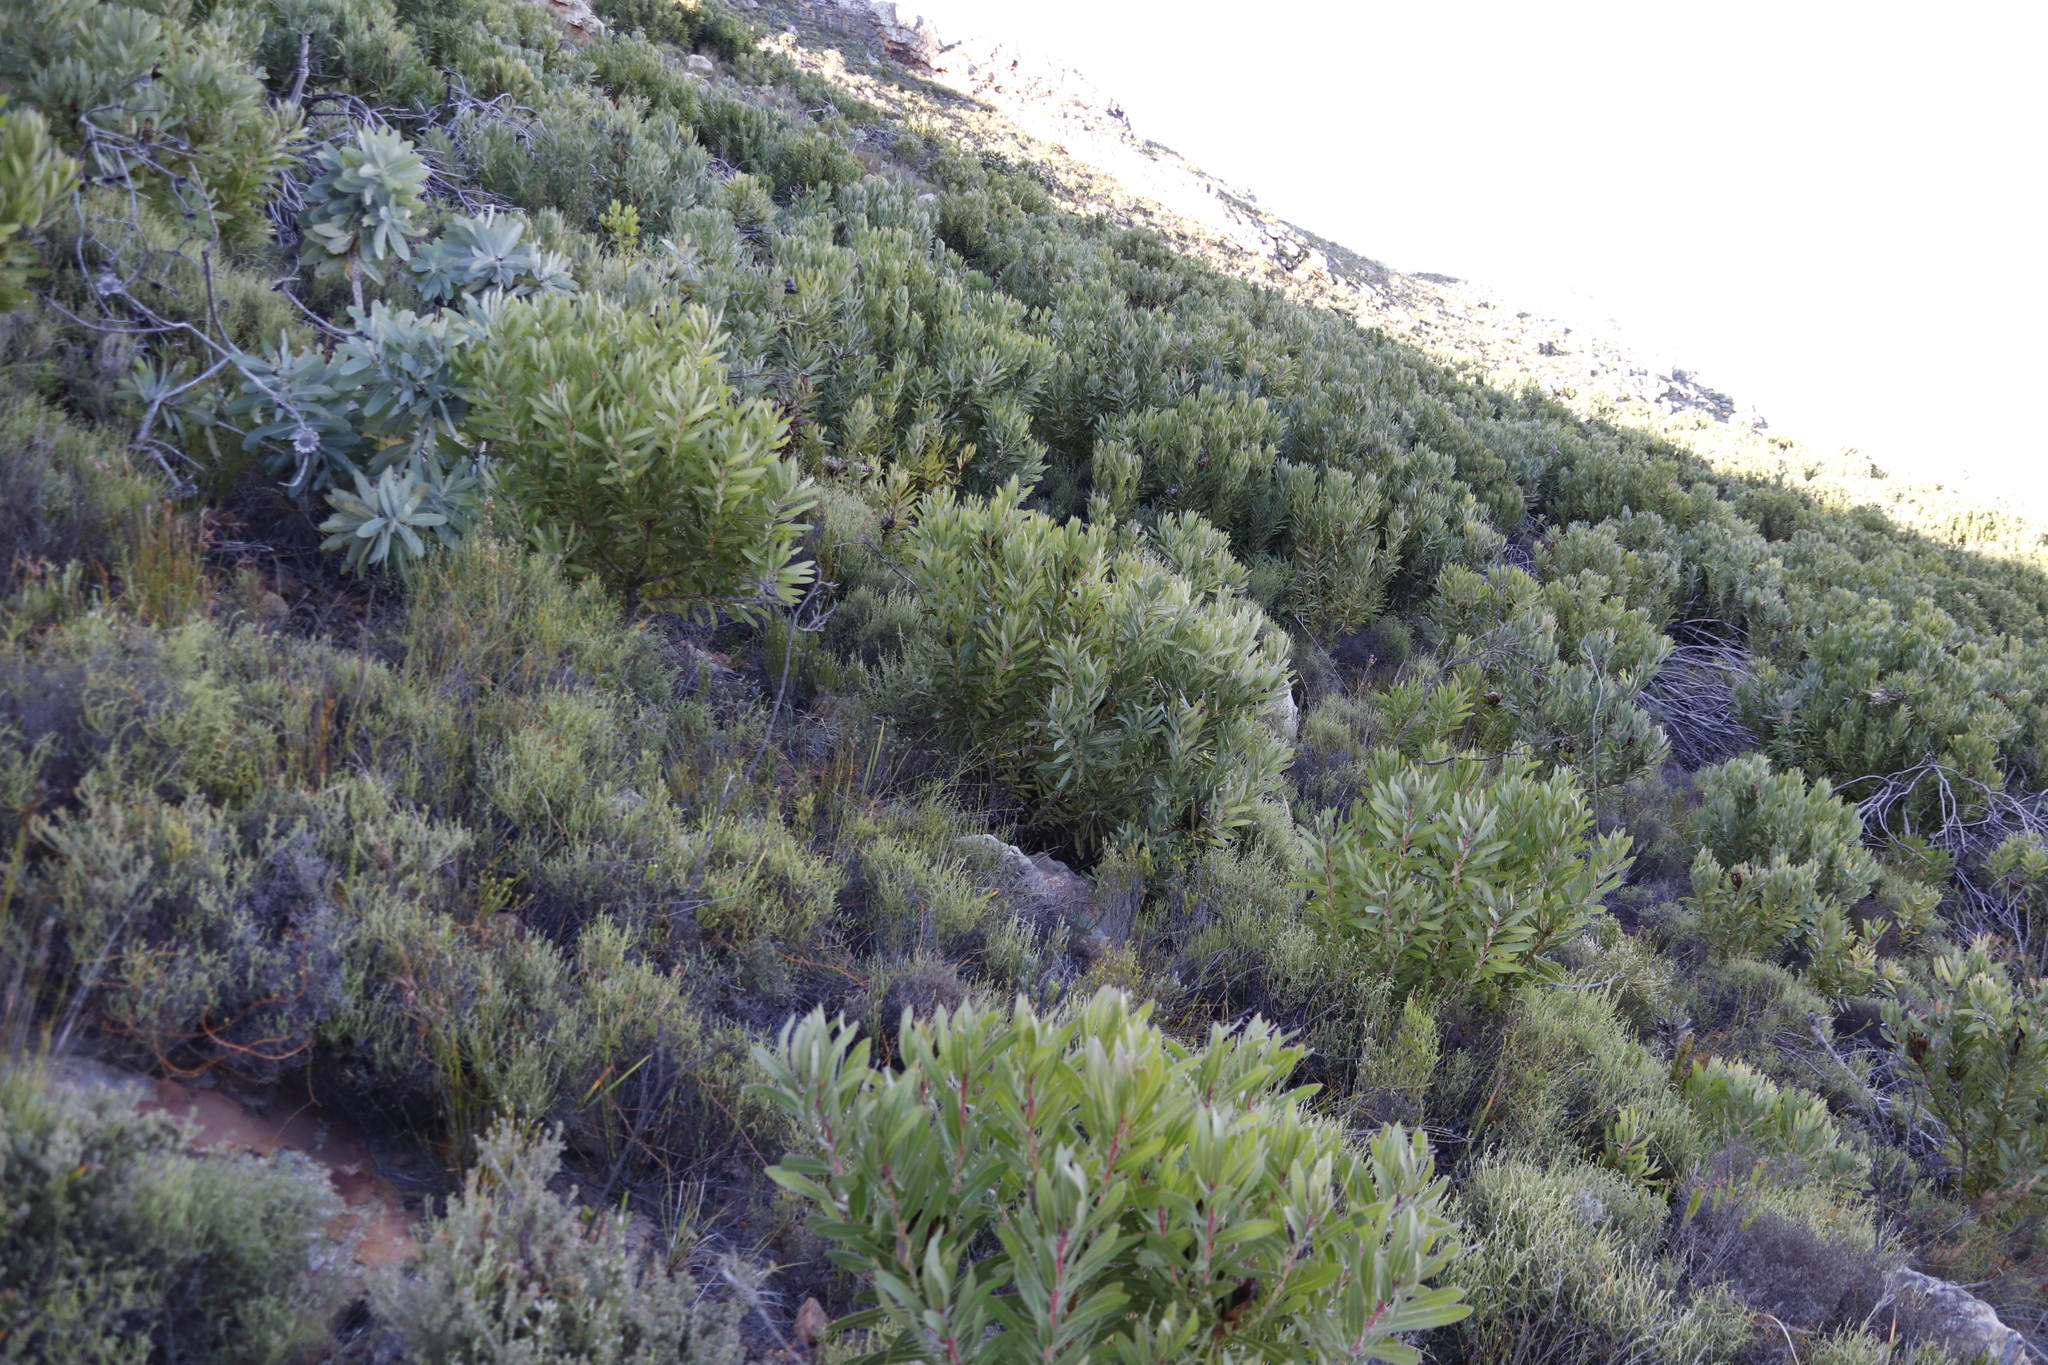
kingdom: Plantae
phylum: Tracheophyta
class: Magnoliopsida
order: Proteales
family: Proteaceae
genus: Protea
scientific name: Protea lepidocarpodendron
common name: Black-bearded protea
